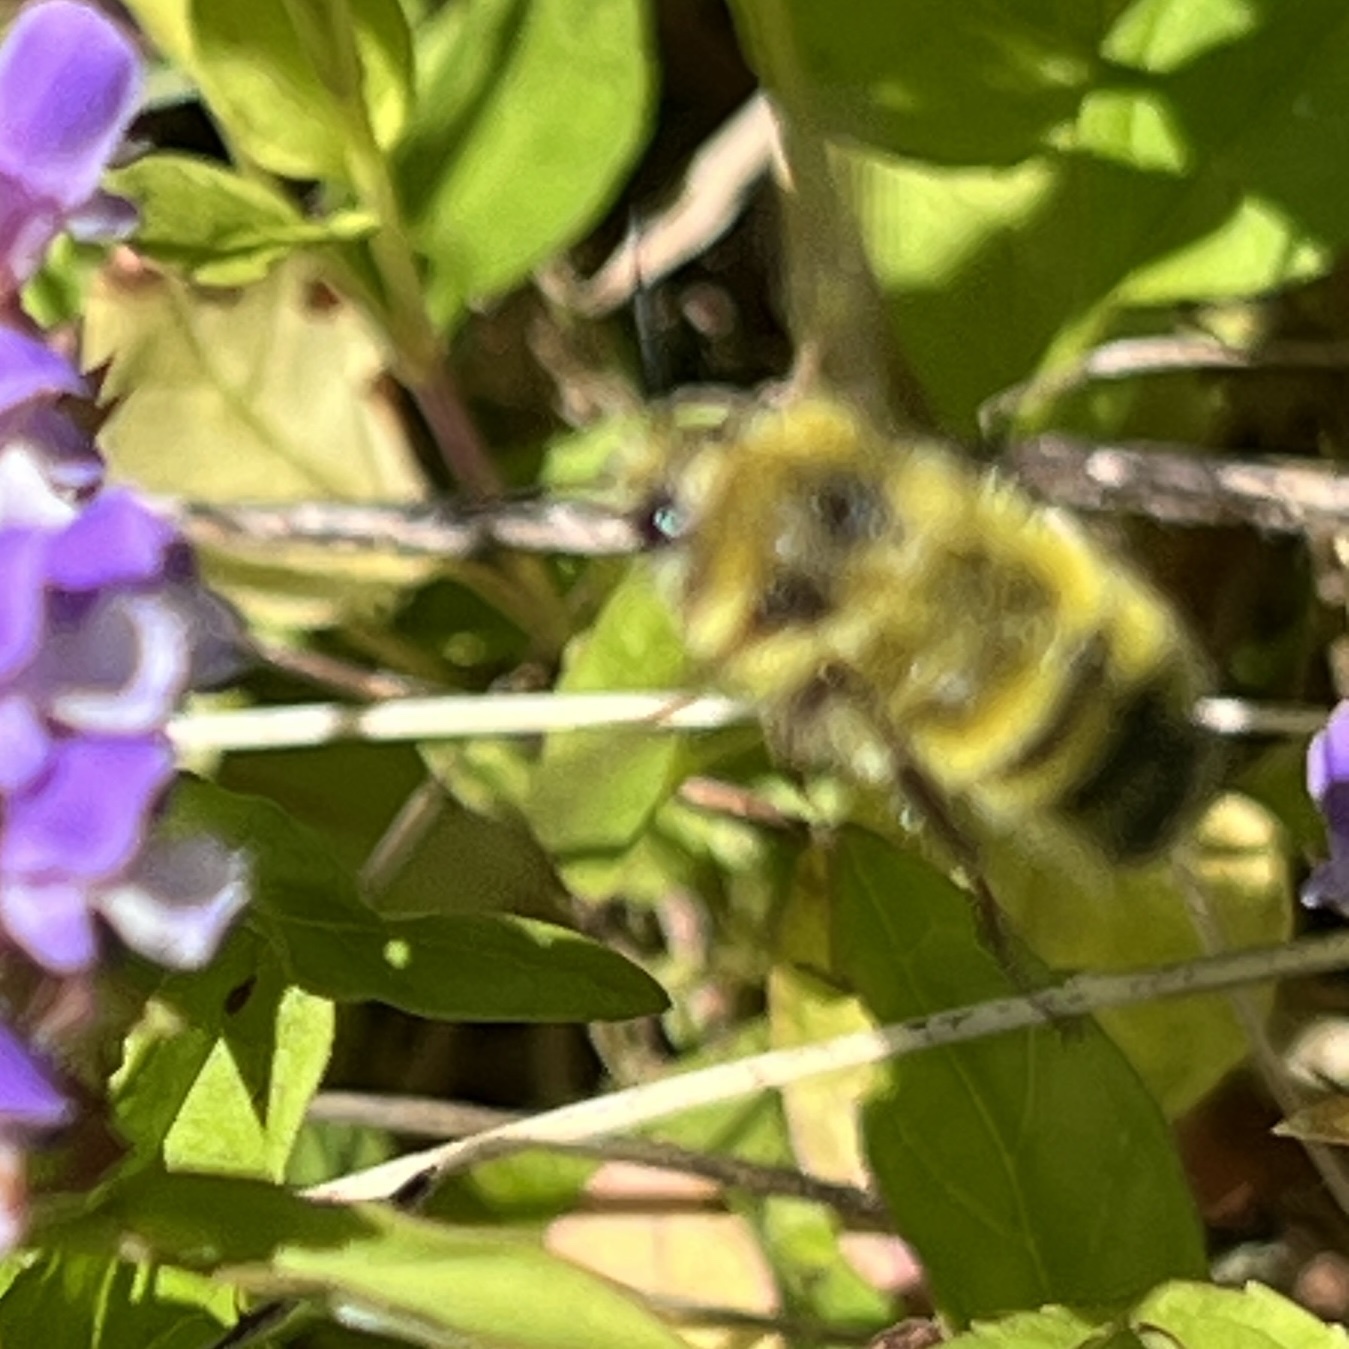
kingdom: Animalia
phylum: Arthropoda
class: Insecta
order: Hymenoptera
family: Apidae
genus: Bombus
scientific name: Bombus flavifrons
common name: Yellow head bumble bee
